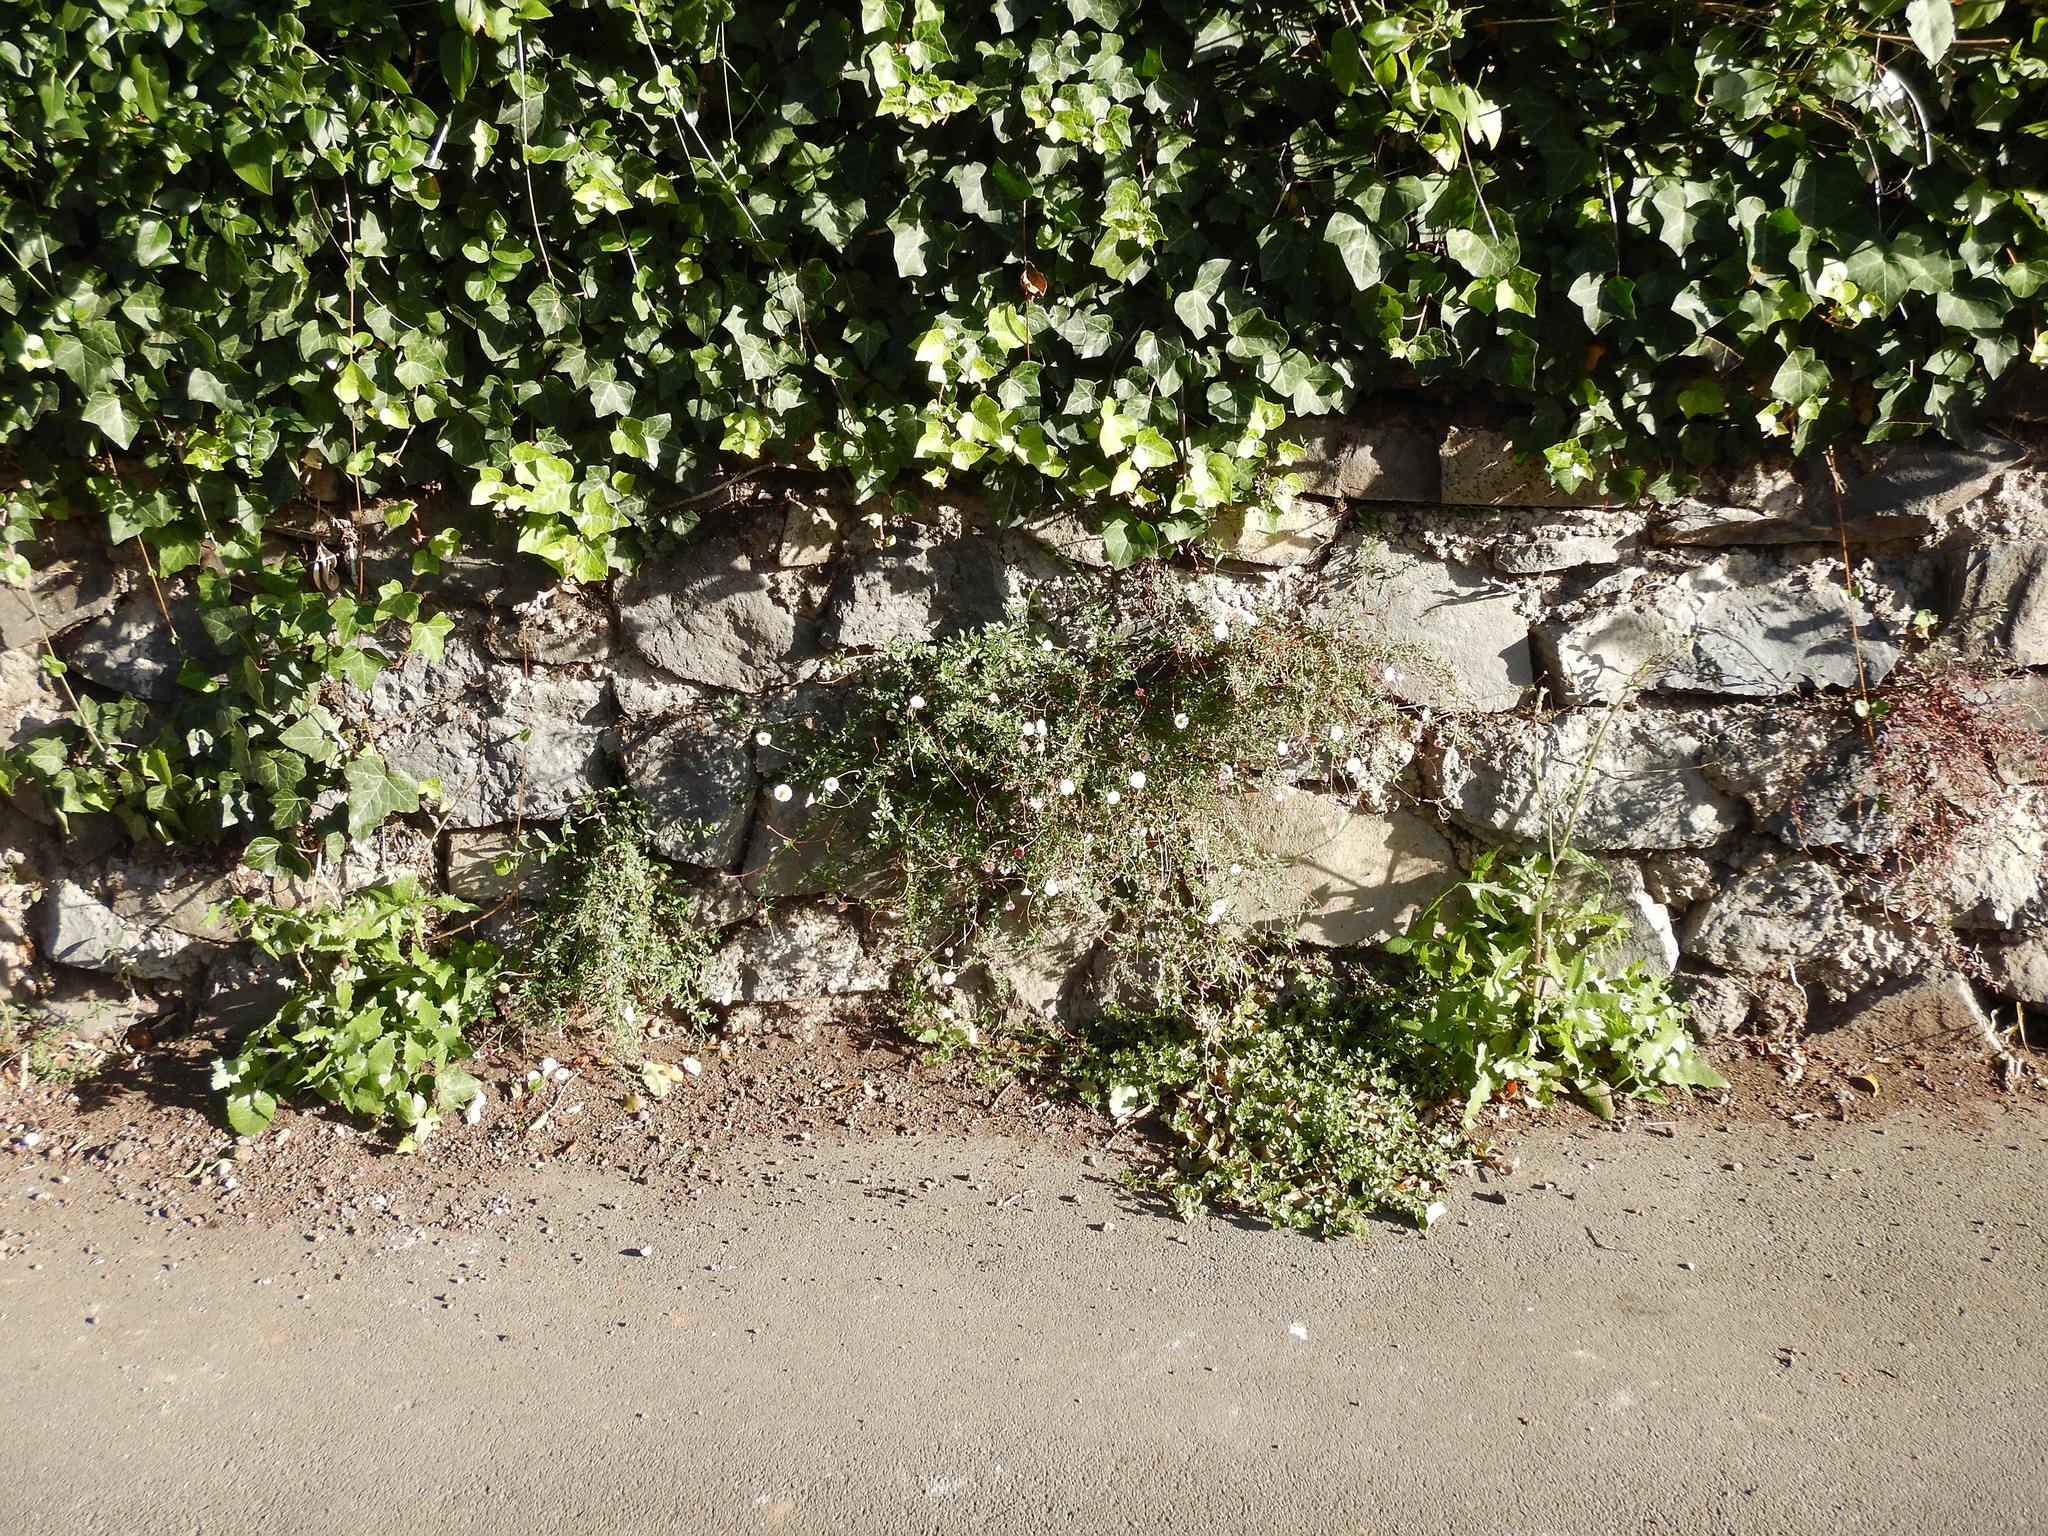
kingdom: Plantae
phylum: Tracheophyta
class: Magnoliopsida
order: Asterales
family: Asteraceae
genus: Erigeron
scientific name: Erigeron karvinskianus
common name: Mexican fleabane
